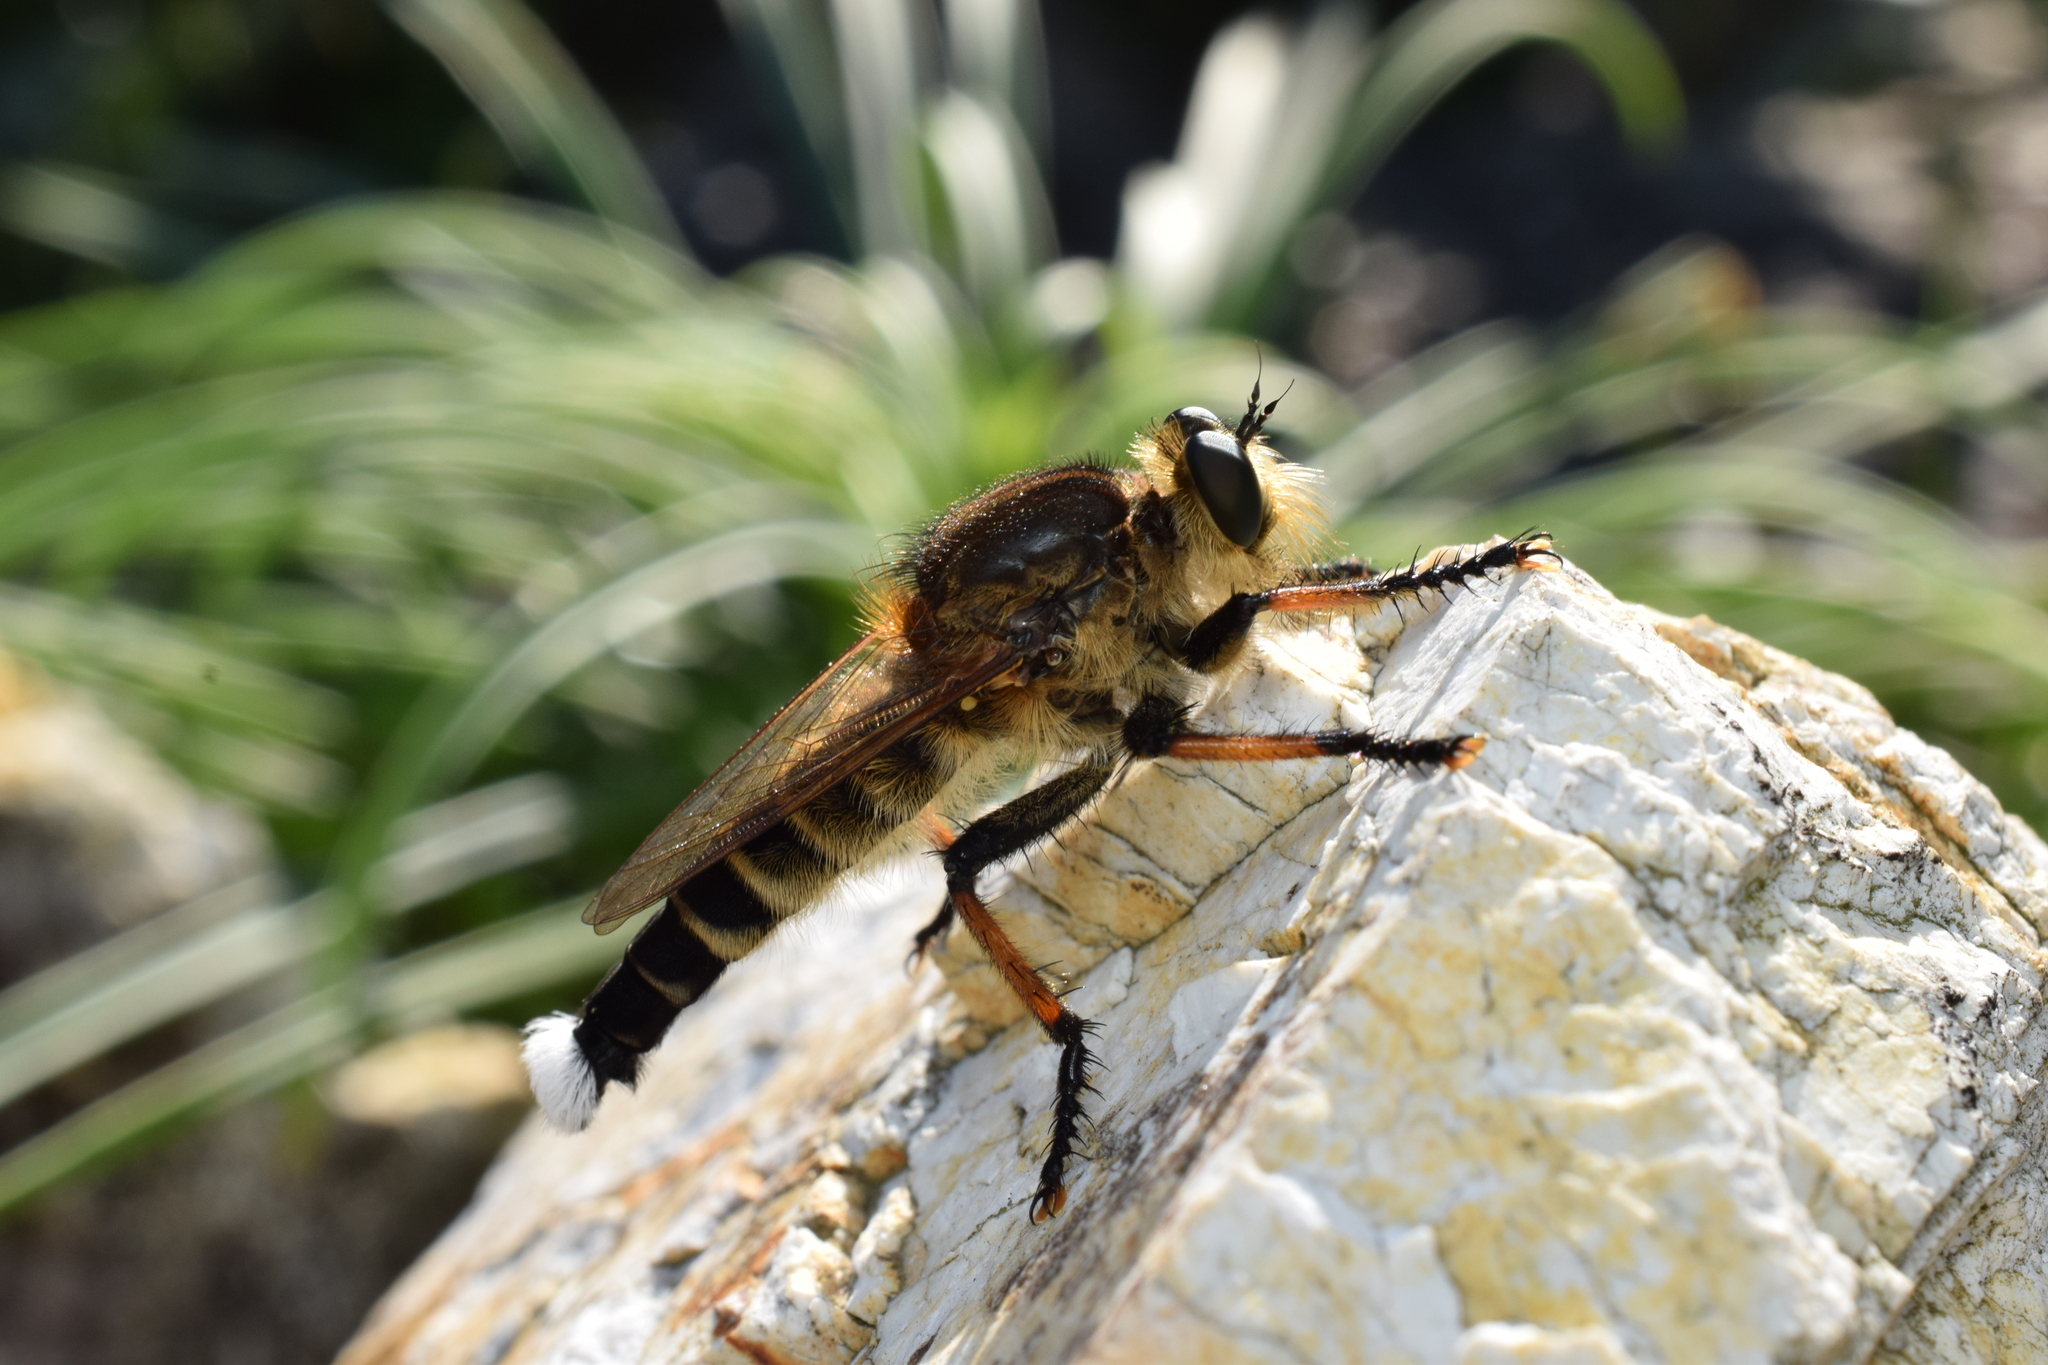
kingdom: Animalia
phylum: Arthropoda
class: Insecta
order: Diptera
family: Asilidae
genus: Promachus
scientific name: Promachus yesonicus
